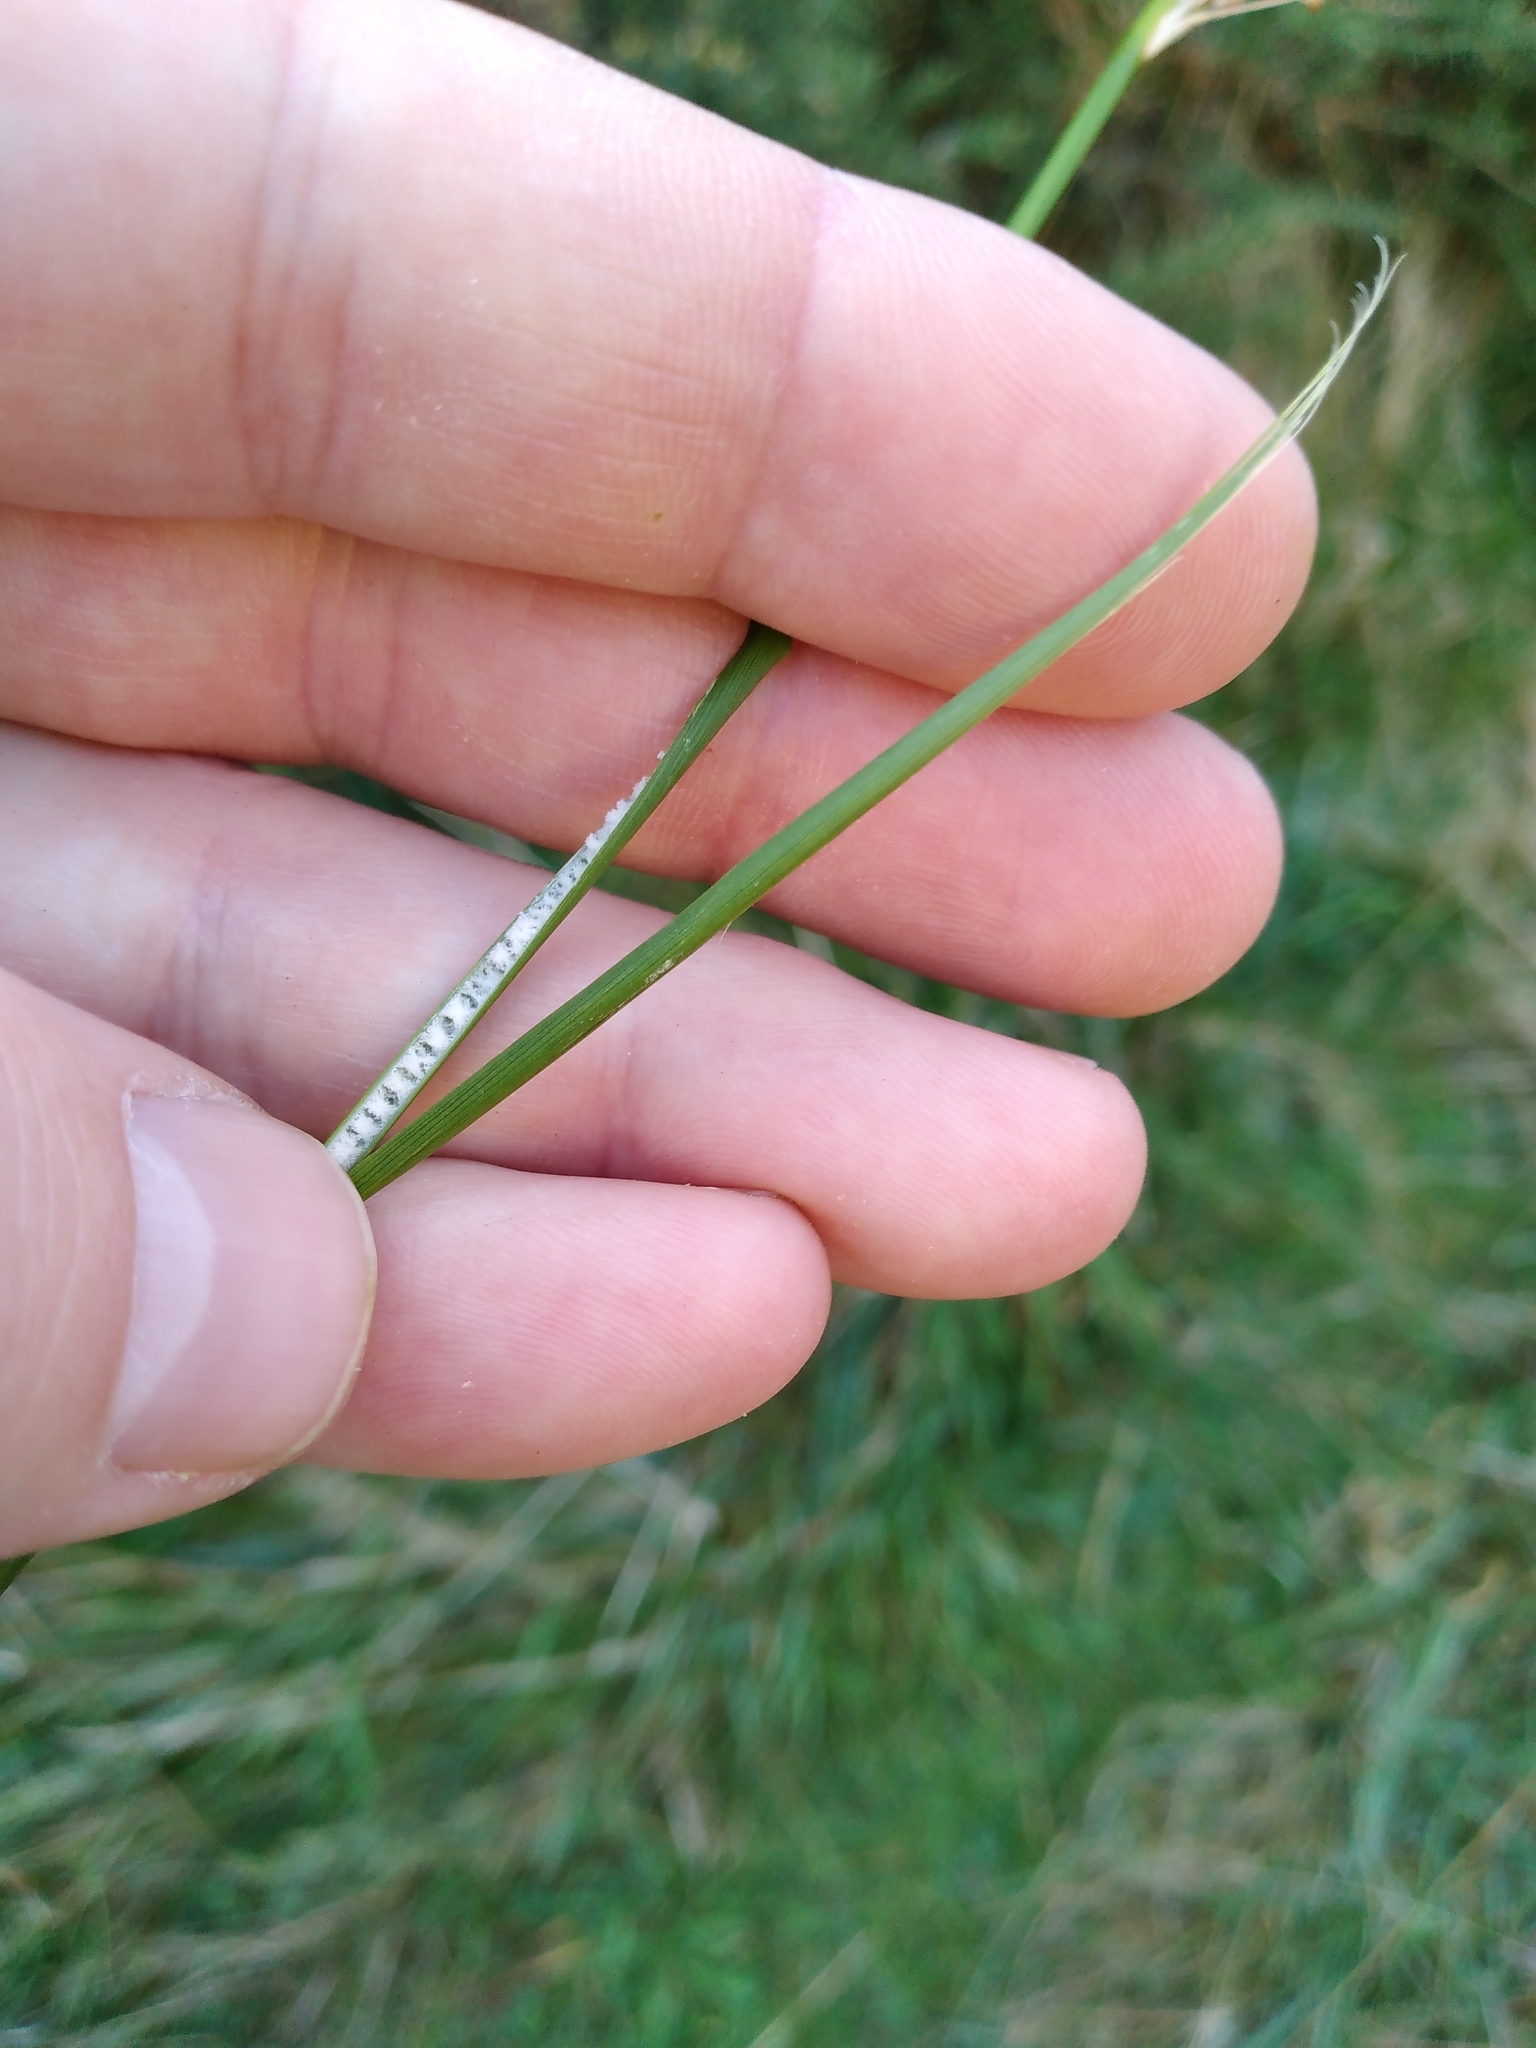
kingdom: Plantae
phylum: Tracheophyta
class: Liliopsida
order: Poales
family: Juncaceae
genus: Juncus
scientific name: Juncus sarophorus
